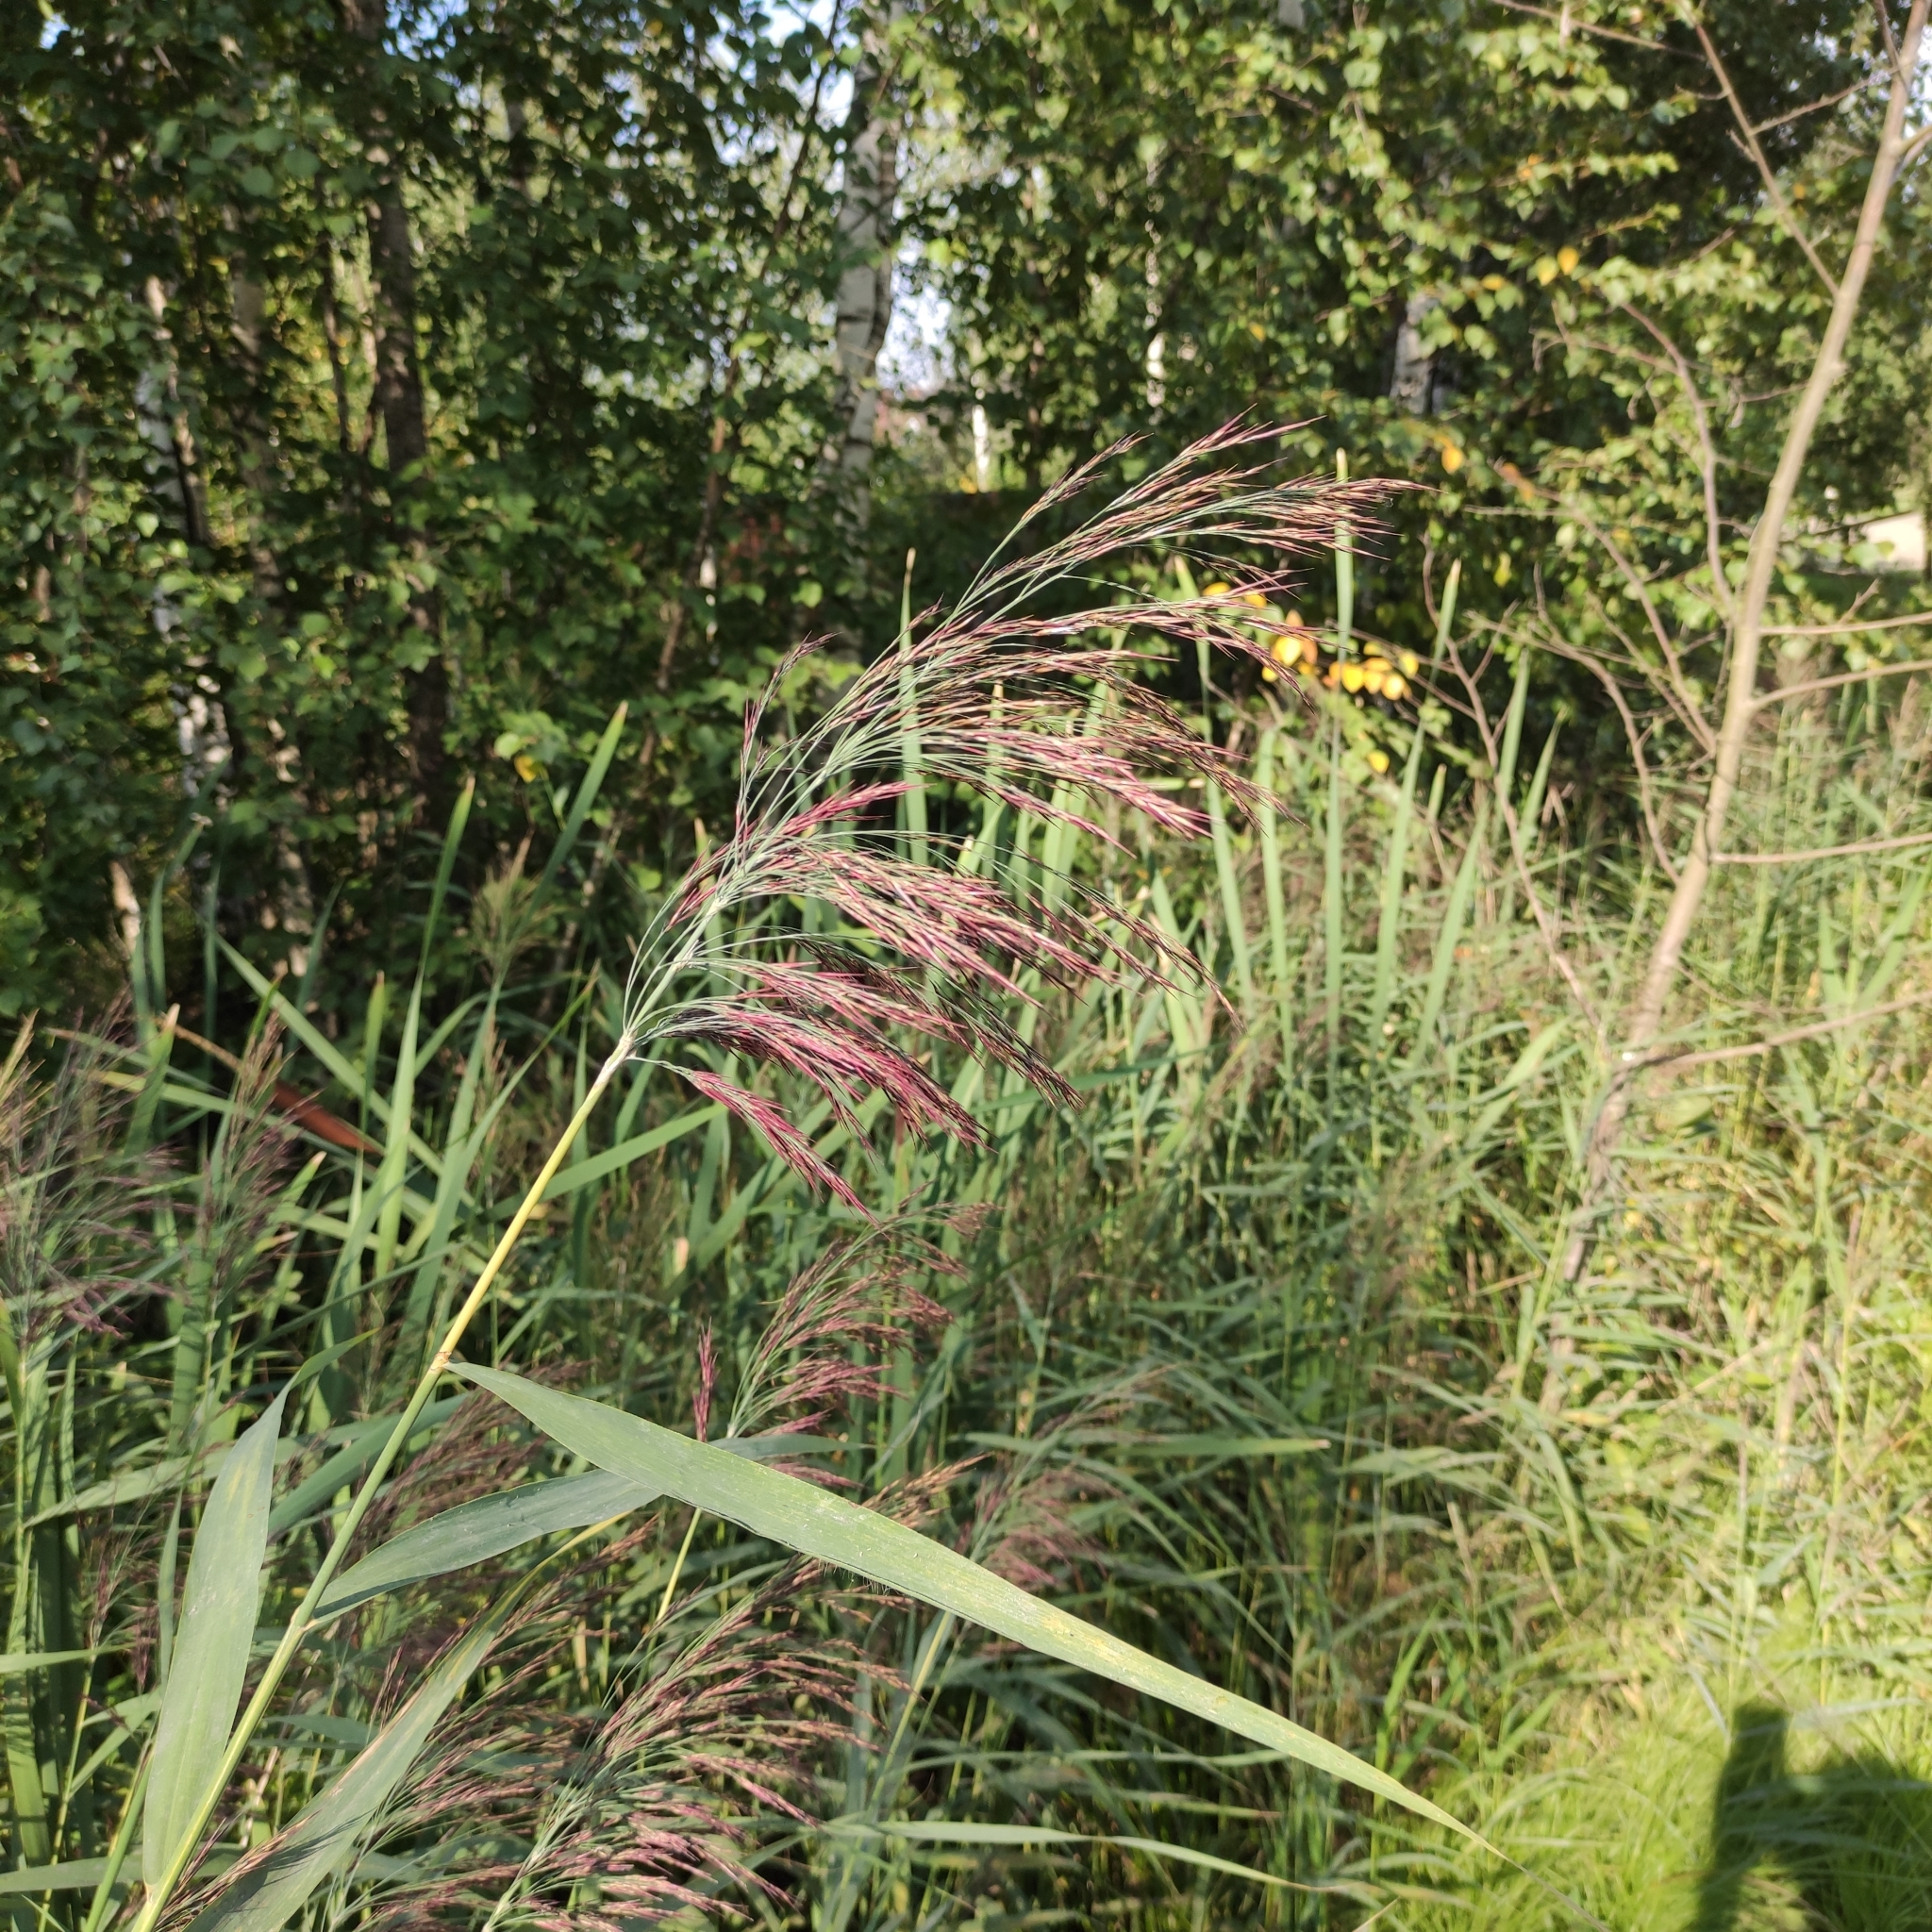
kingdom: Plantae
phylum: Tracheophyta
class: Liliopsida
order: Poales
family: Poaceae
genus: Phragmites
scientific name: Phragmites australis
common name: Common reed
